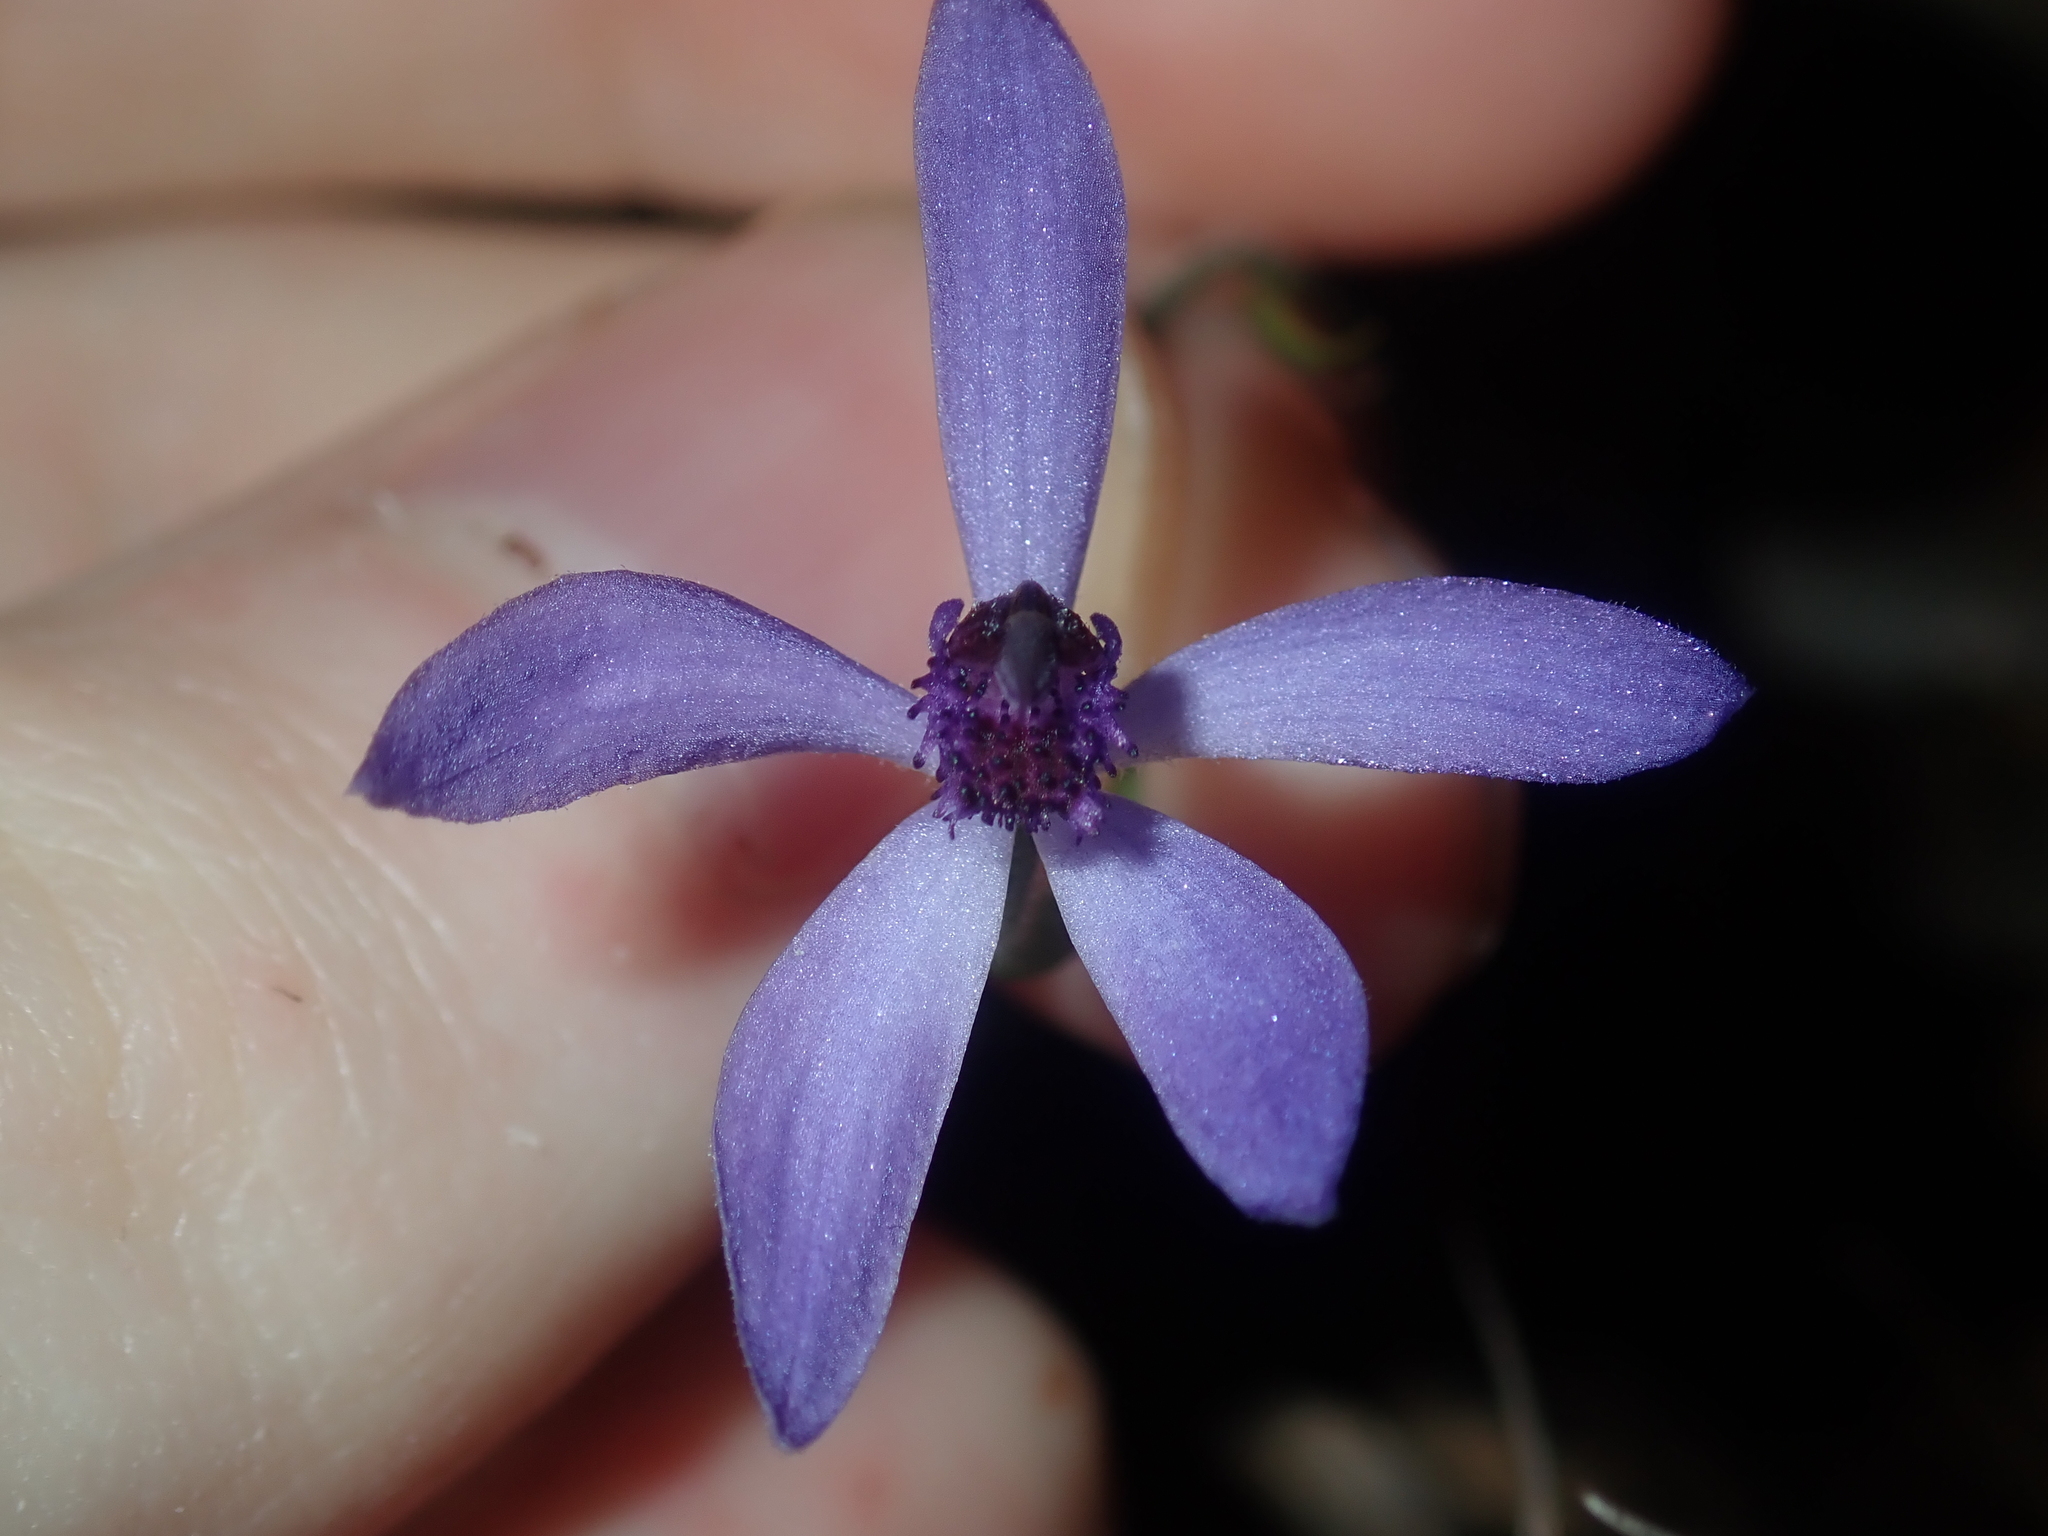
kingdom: Plantae
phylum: Tracheophyta
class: Liliopsida
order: Asparagales
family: Orchidaceae
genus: Pheladenia
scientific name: Pheladenia deformis
